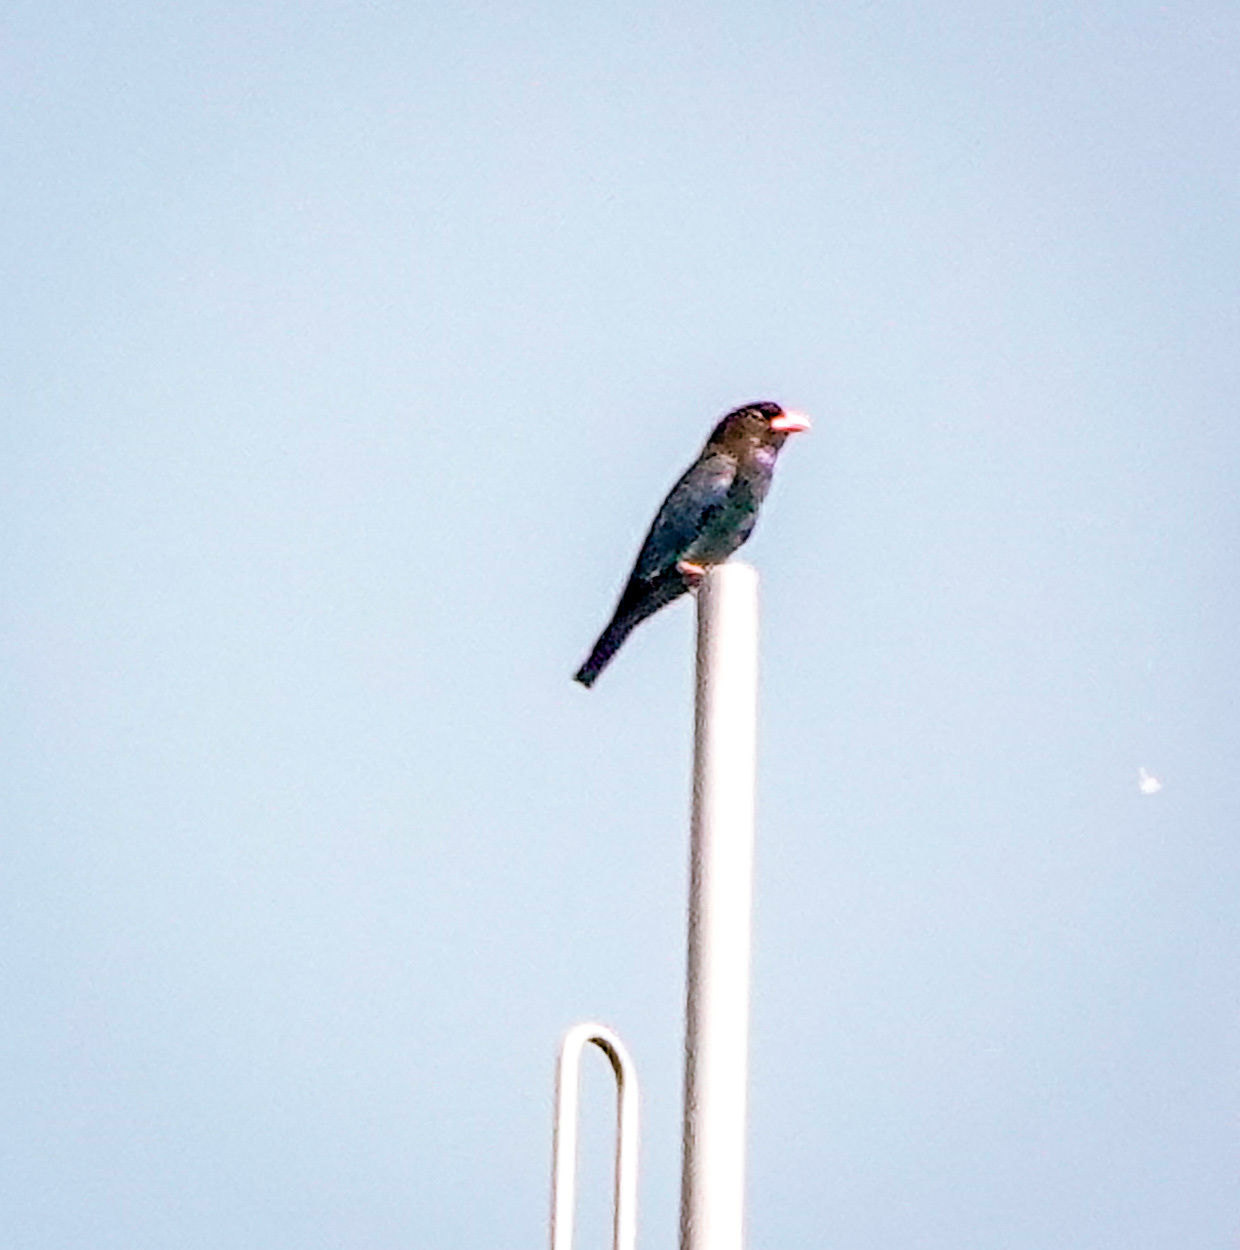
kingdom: Animalia
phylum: Chordata
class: Aves
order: Coraciiformes
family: Coraciidae
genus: Eurystomus
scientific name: Eurystomus orientalis
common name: Oriental dollarbird
